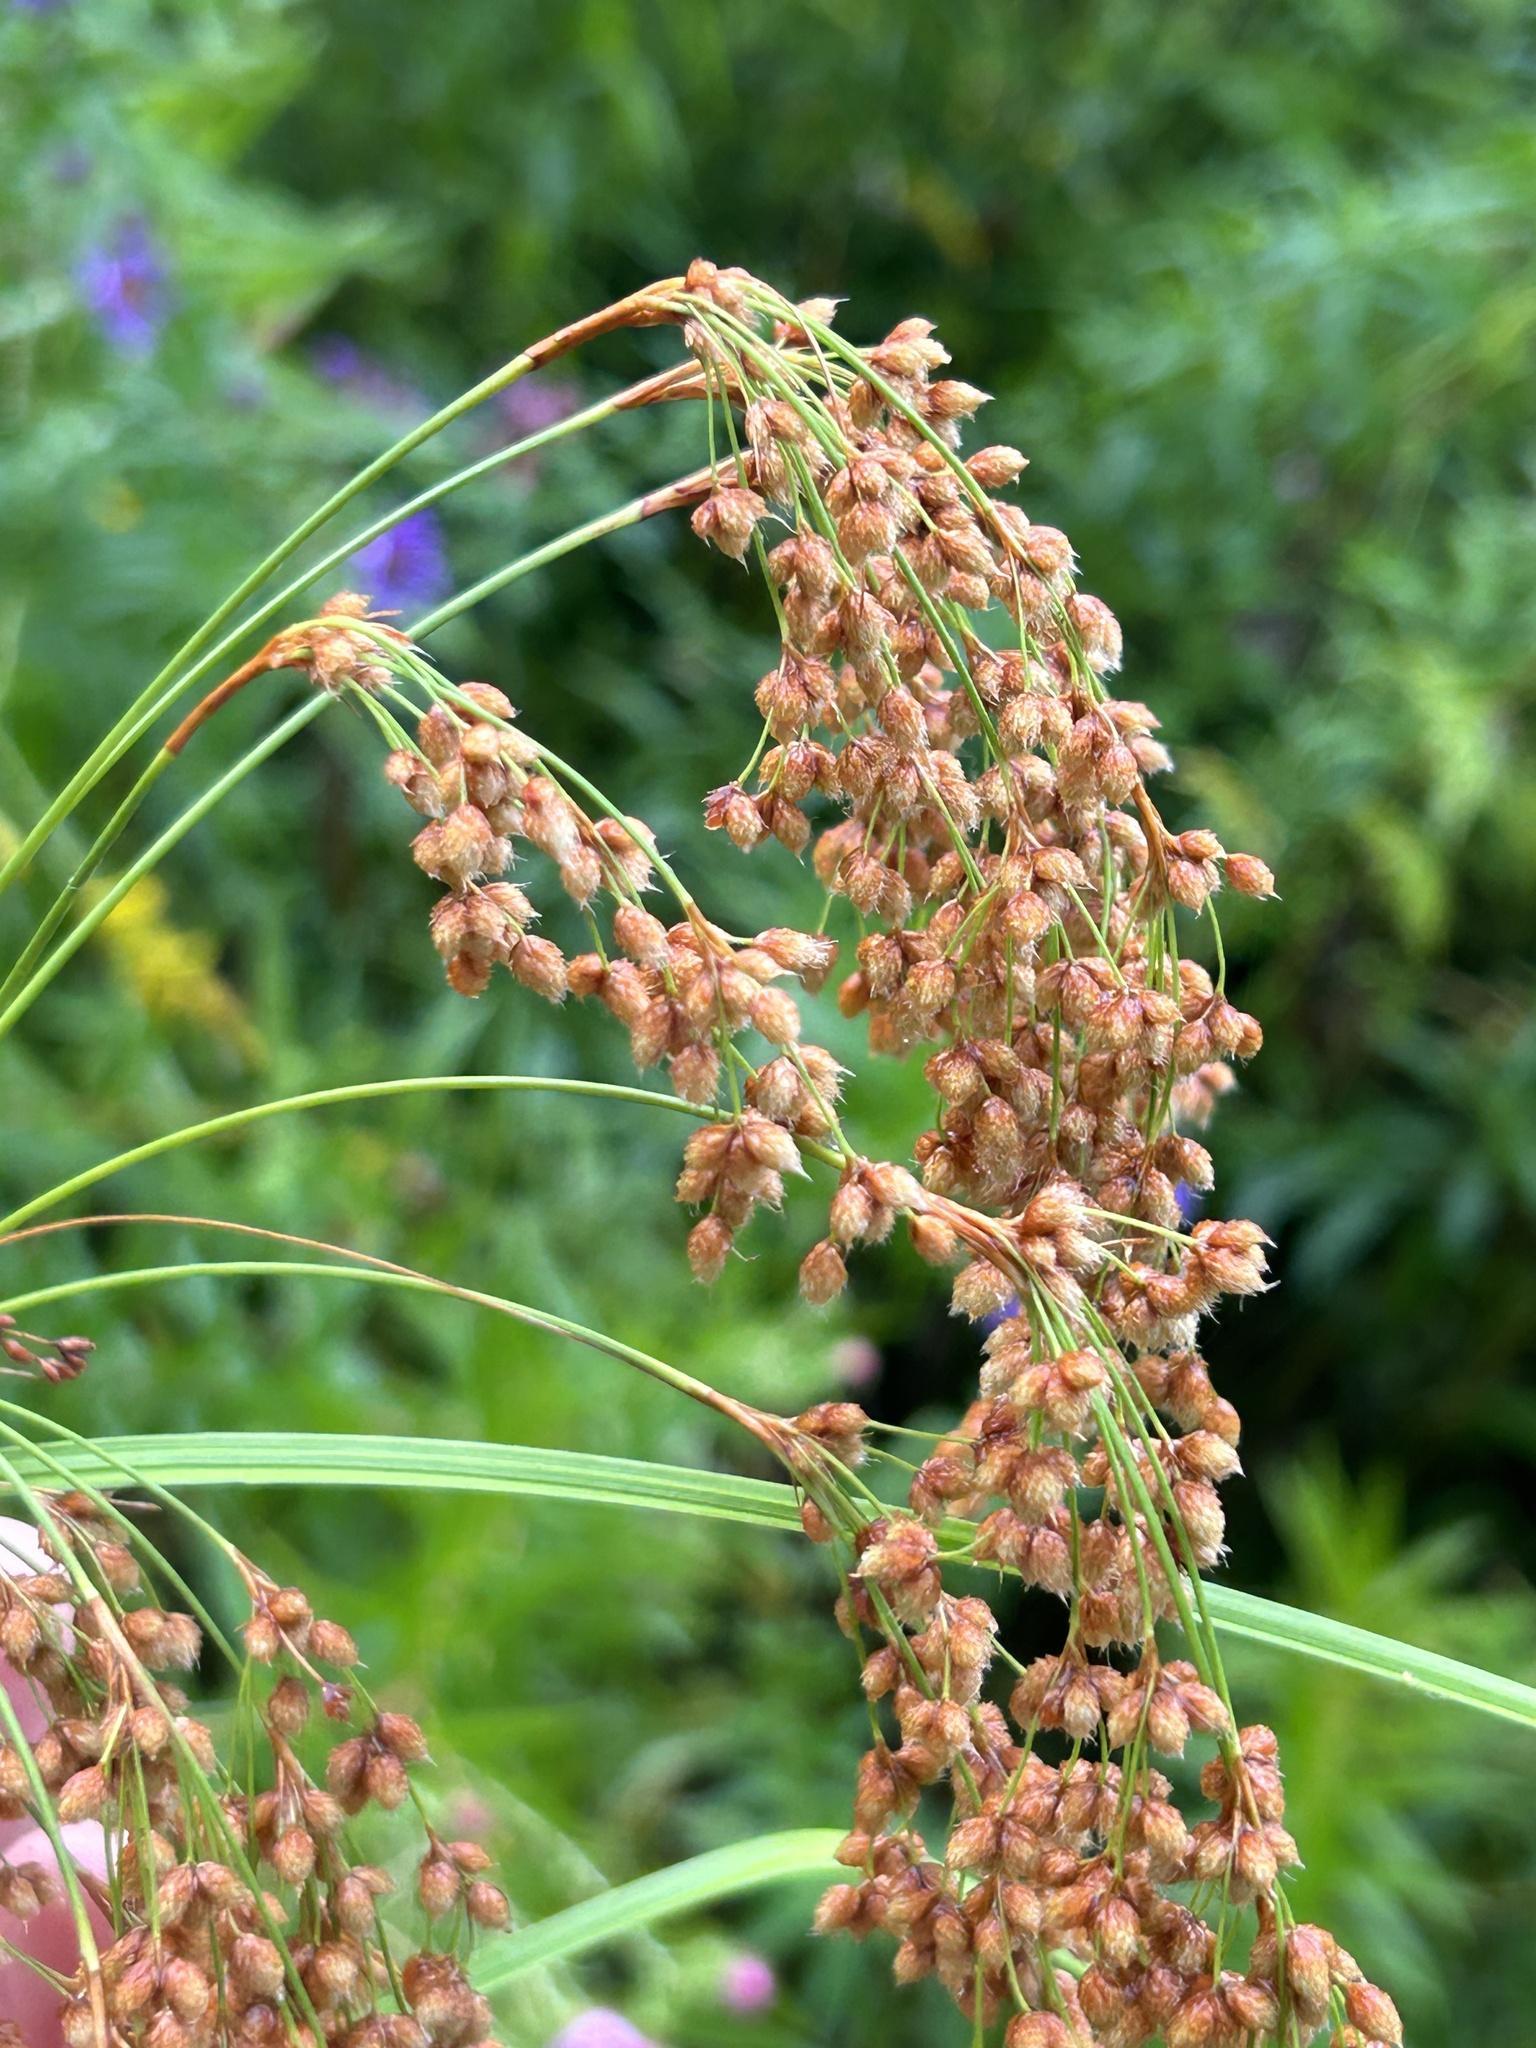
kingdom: Plantae
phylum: Tracheophyta
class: Liliopsida
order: Poales
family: Cyperaceae
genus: Scirpus
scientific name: Scirpus cyperinus
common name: Black-sheathed bulrush
